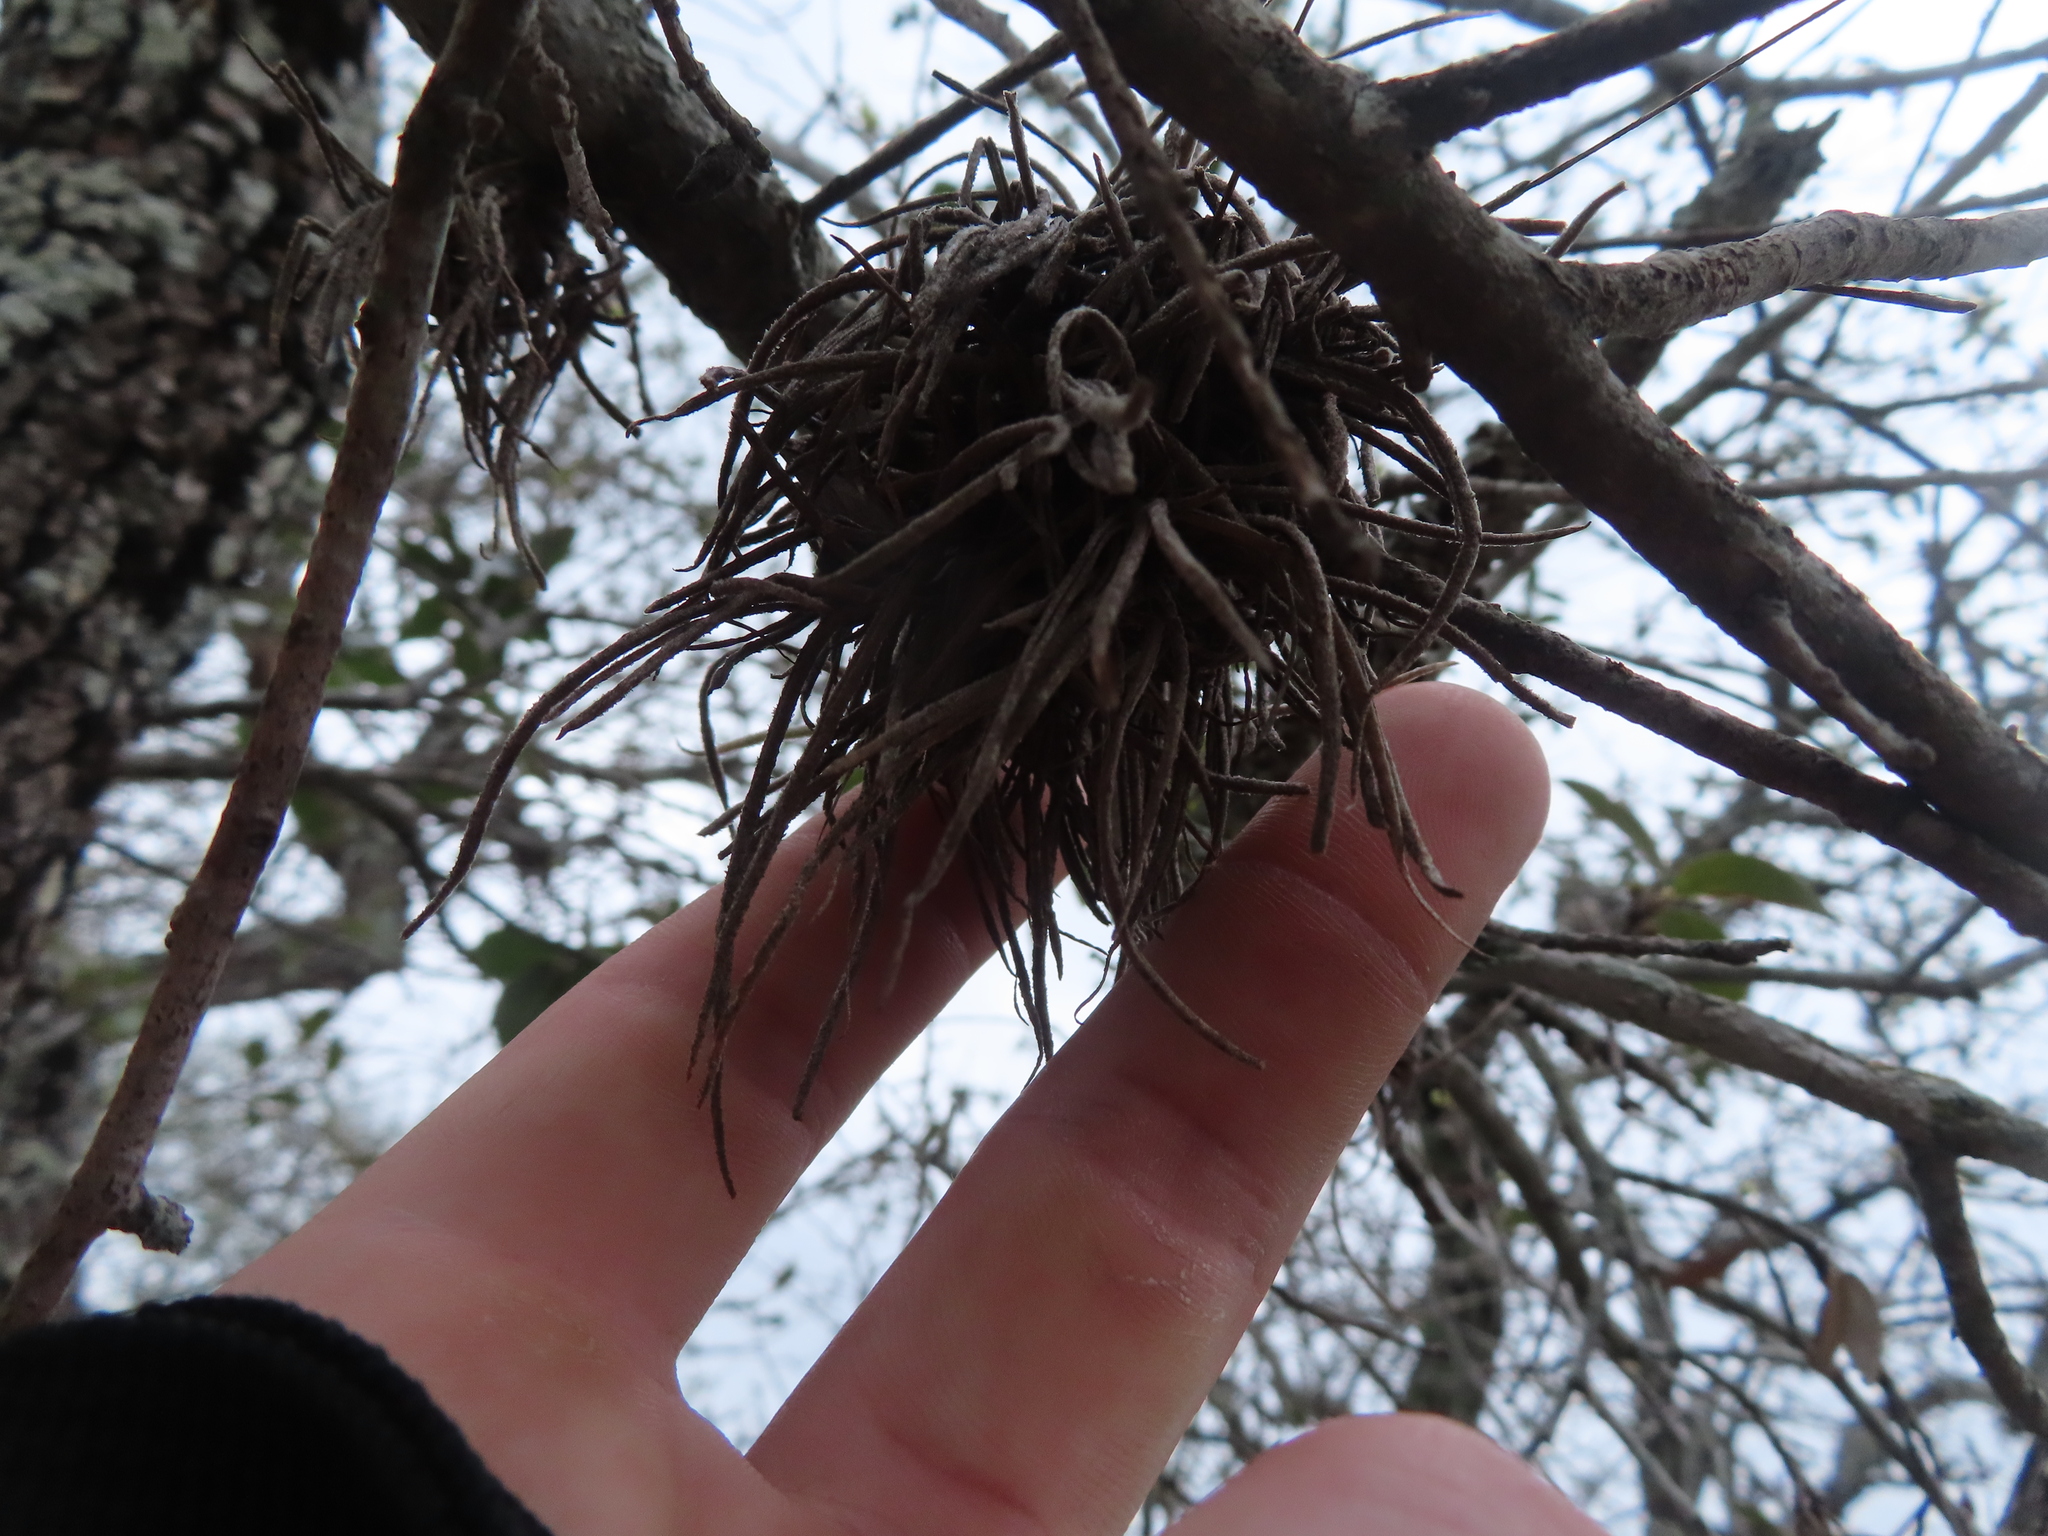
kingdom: Plantae
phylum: Tracheophyta
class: Liliopsida
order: Poales
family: Bromeliaceae
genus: Tillandsia
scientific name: Tillandsia recurvata
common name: Small ballmoss
